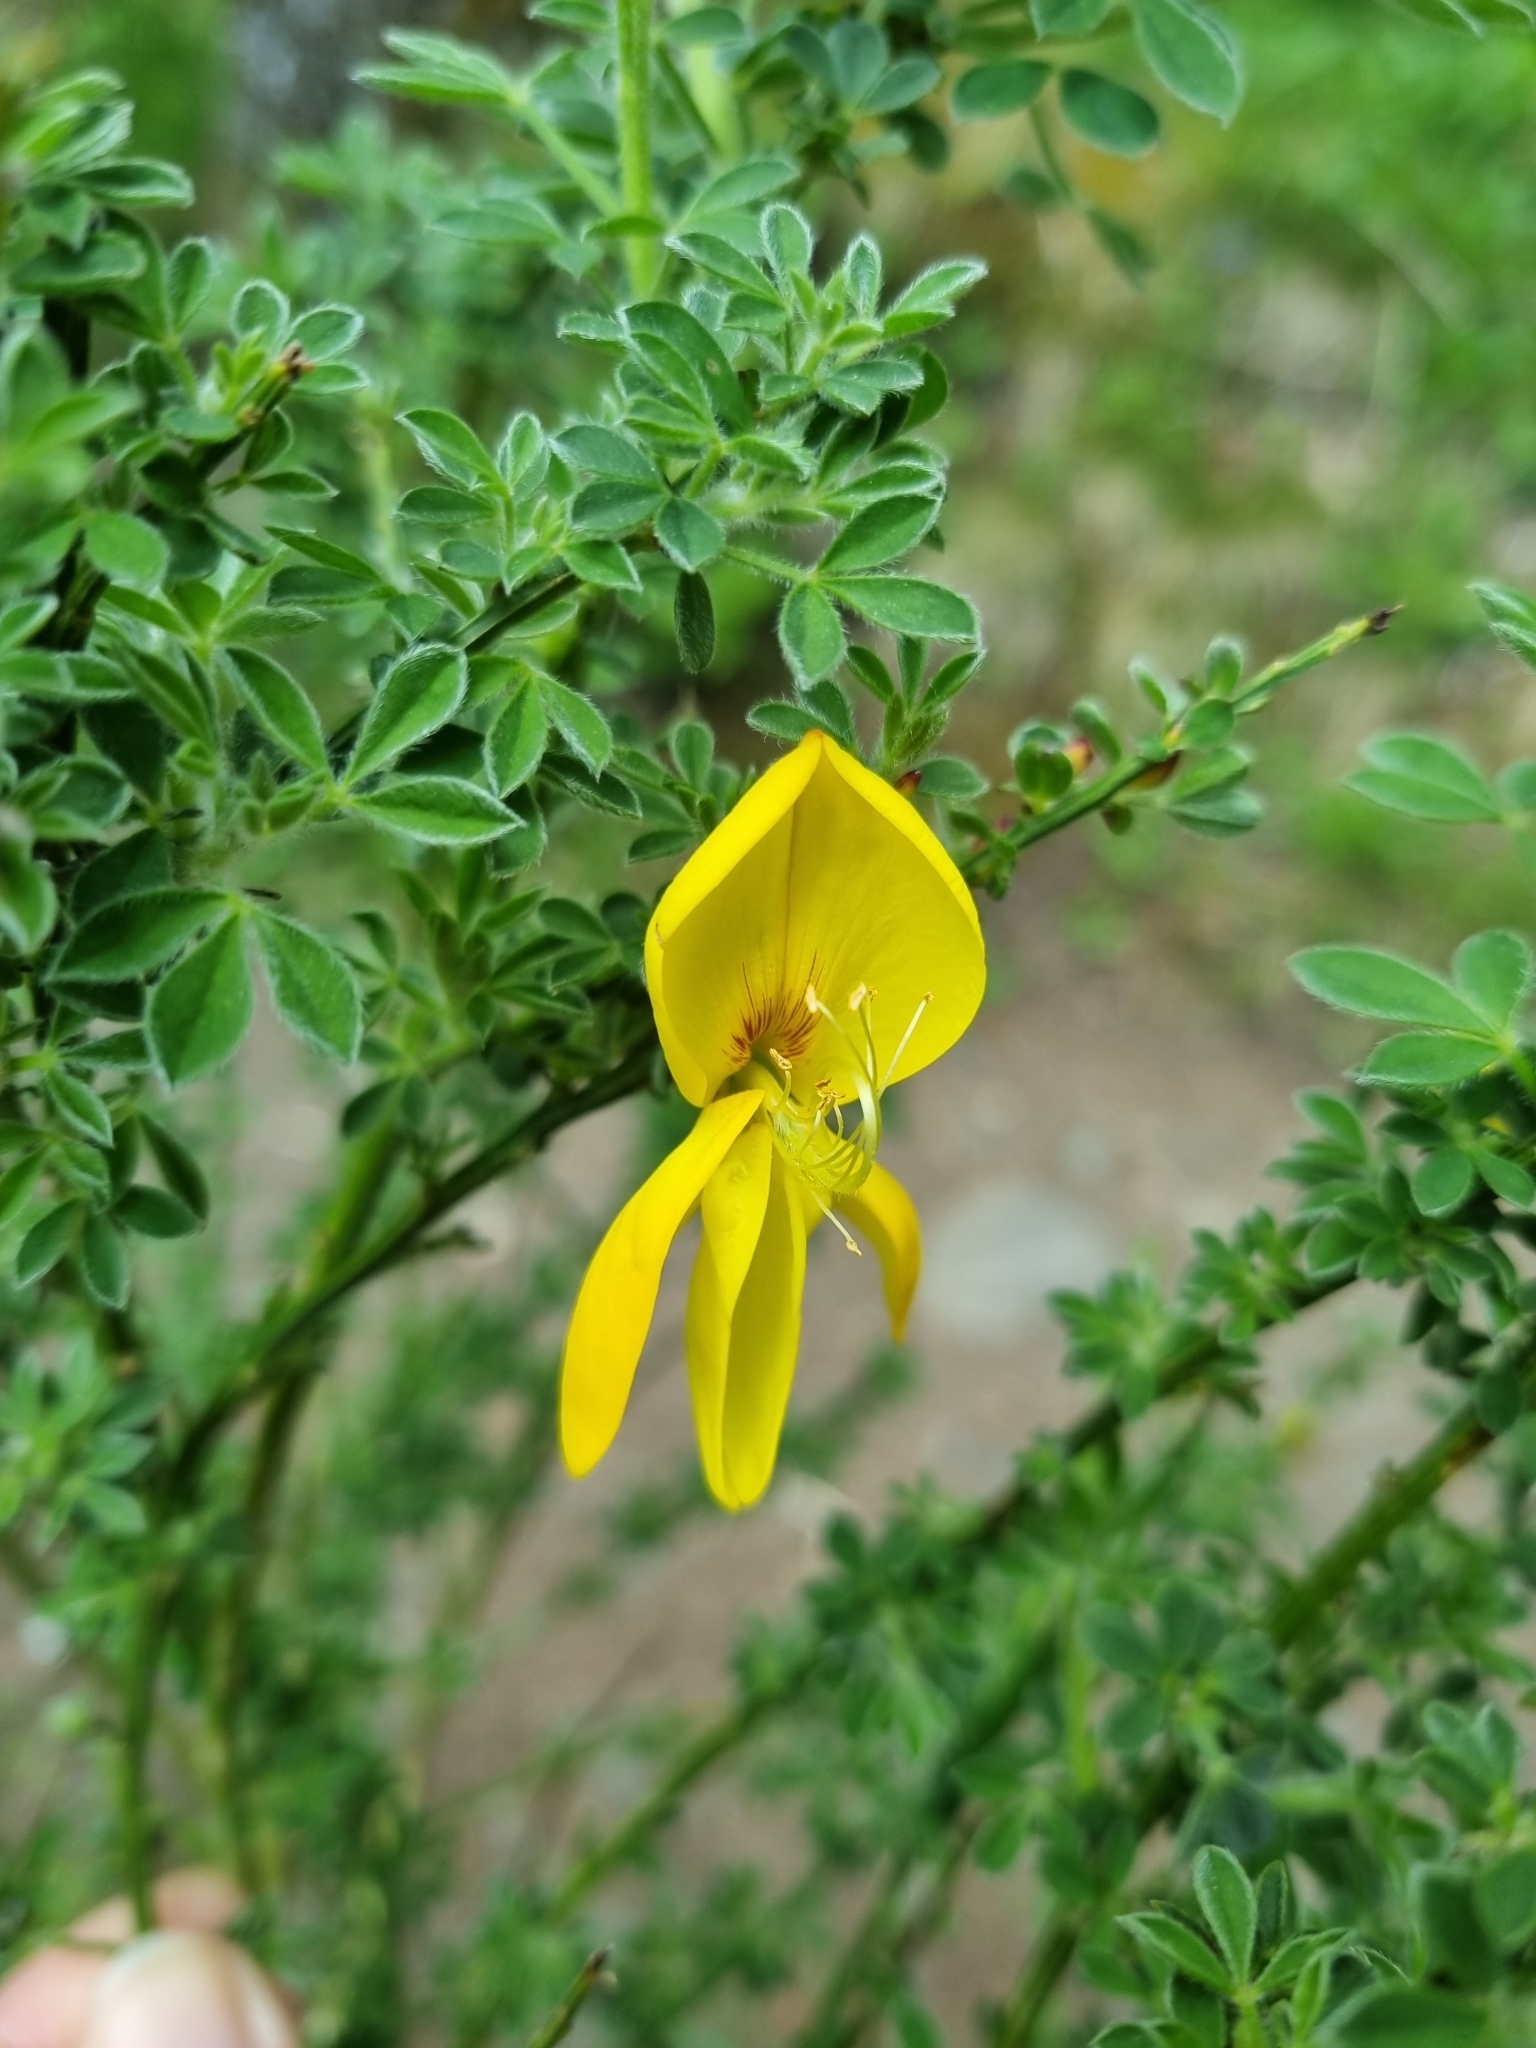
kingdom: Plantae
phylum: Tracheophyta
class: Magnoliopsida
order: Fabales
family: Fabaceae
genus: Cytisus
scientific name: Cytisus scoparius
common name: Scotch broom
